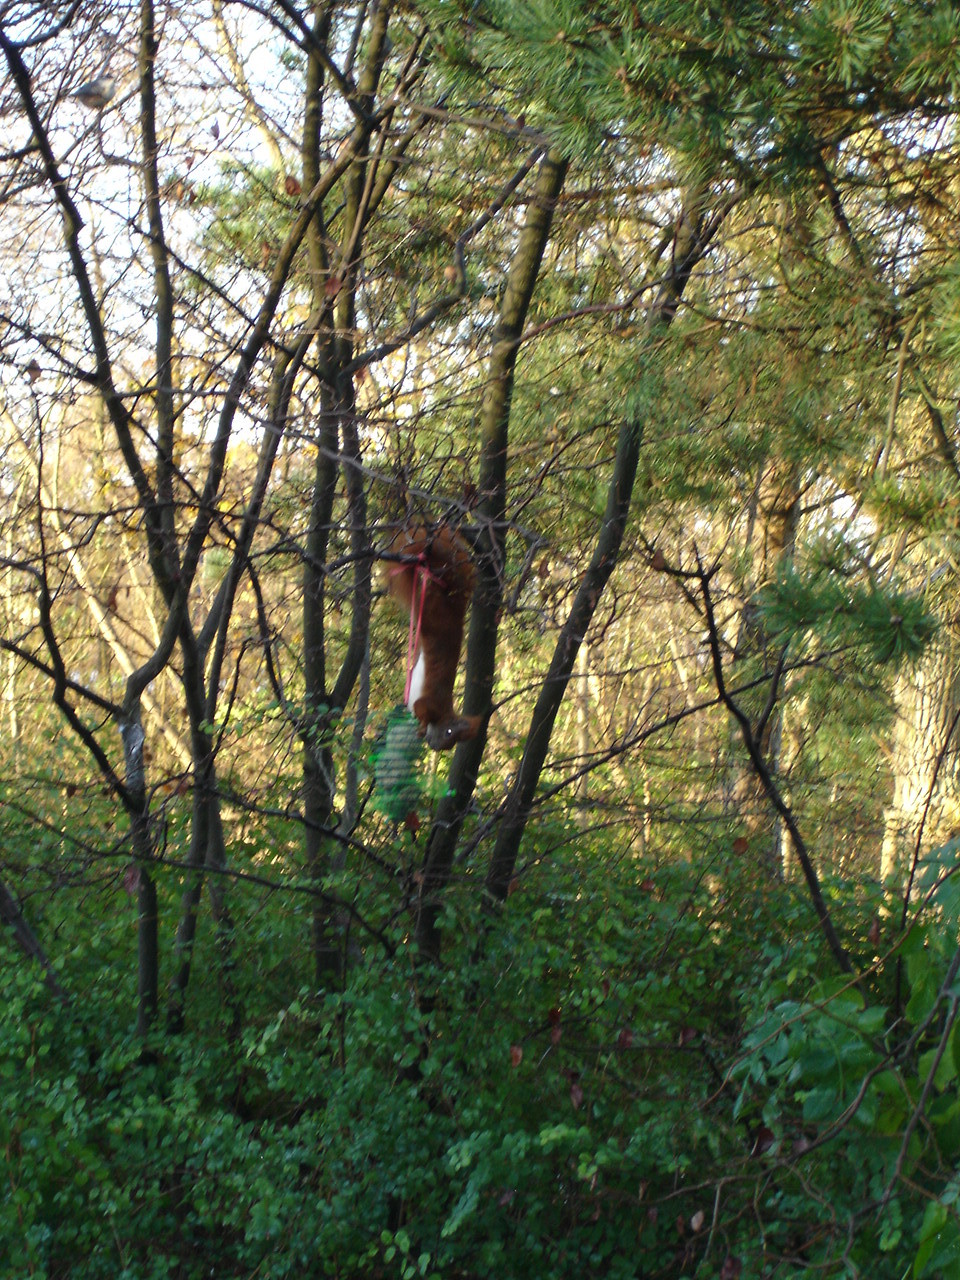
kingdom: Animalia
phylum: Chordata
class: Mammalia
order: Rodentia
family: Sciuridae
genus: Sciurus
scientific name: Sciurus vulgaris
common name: Eurasian red squirrel
